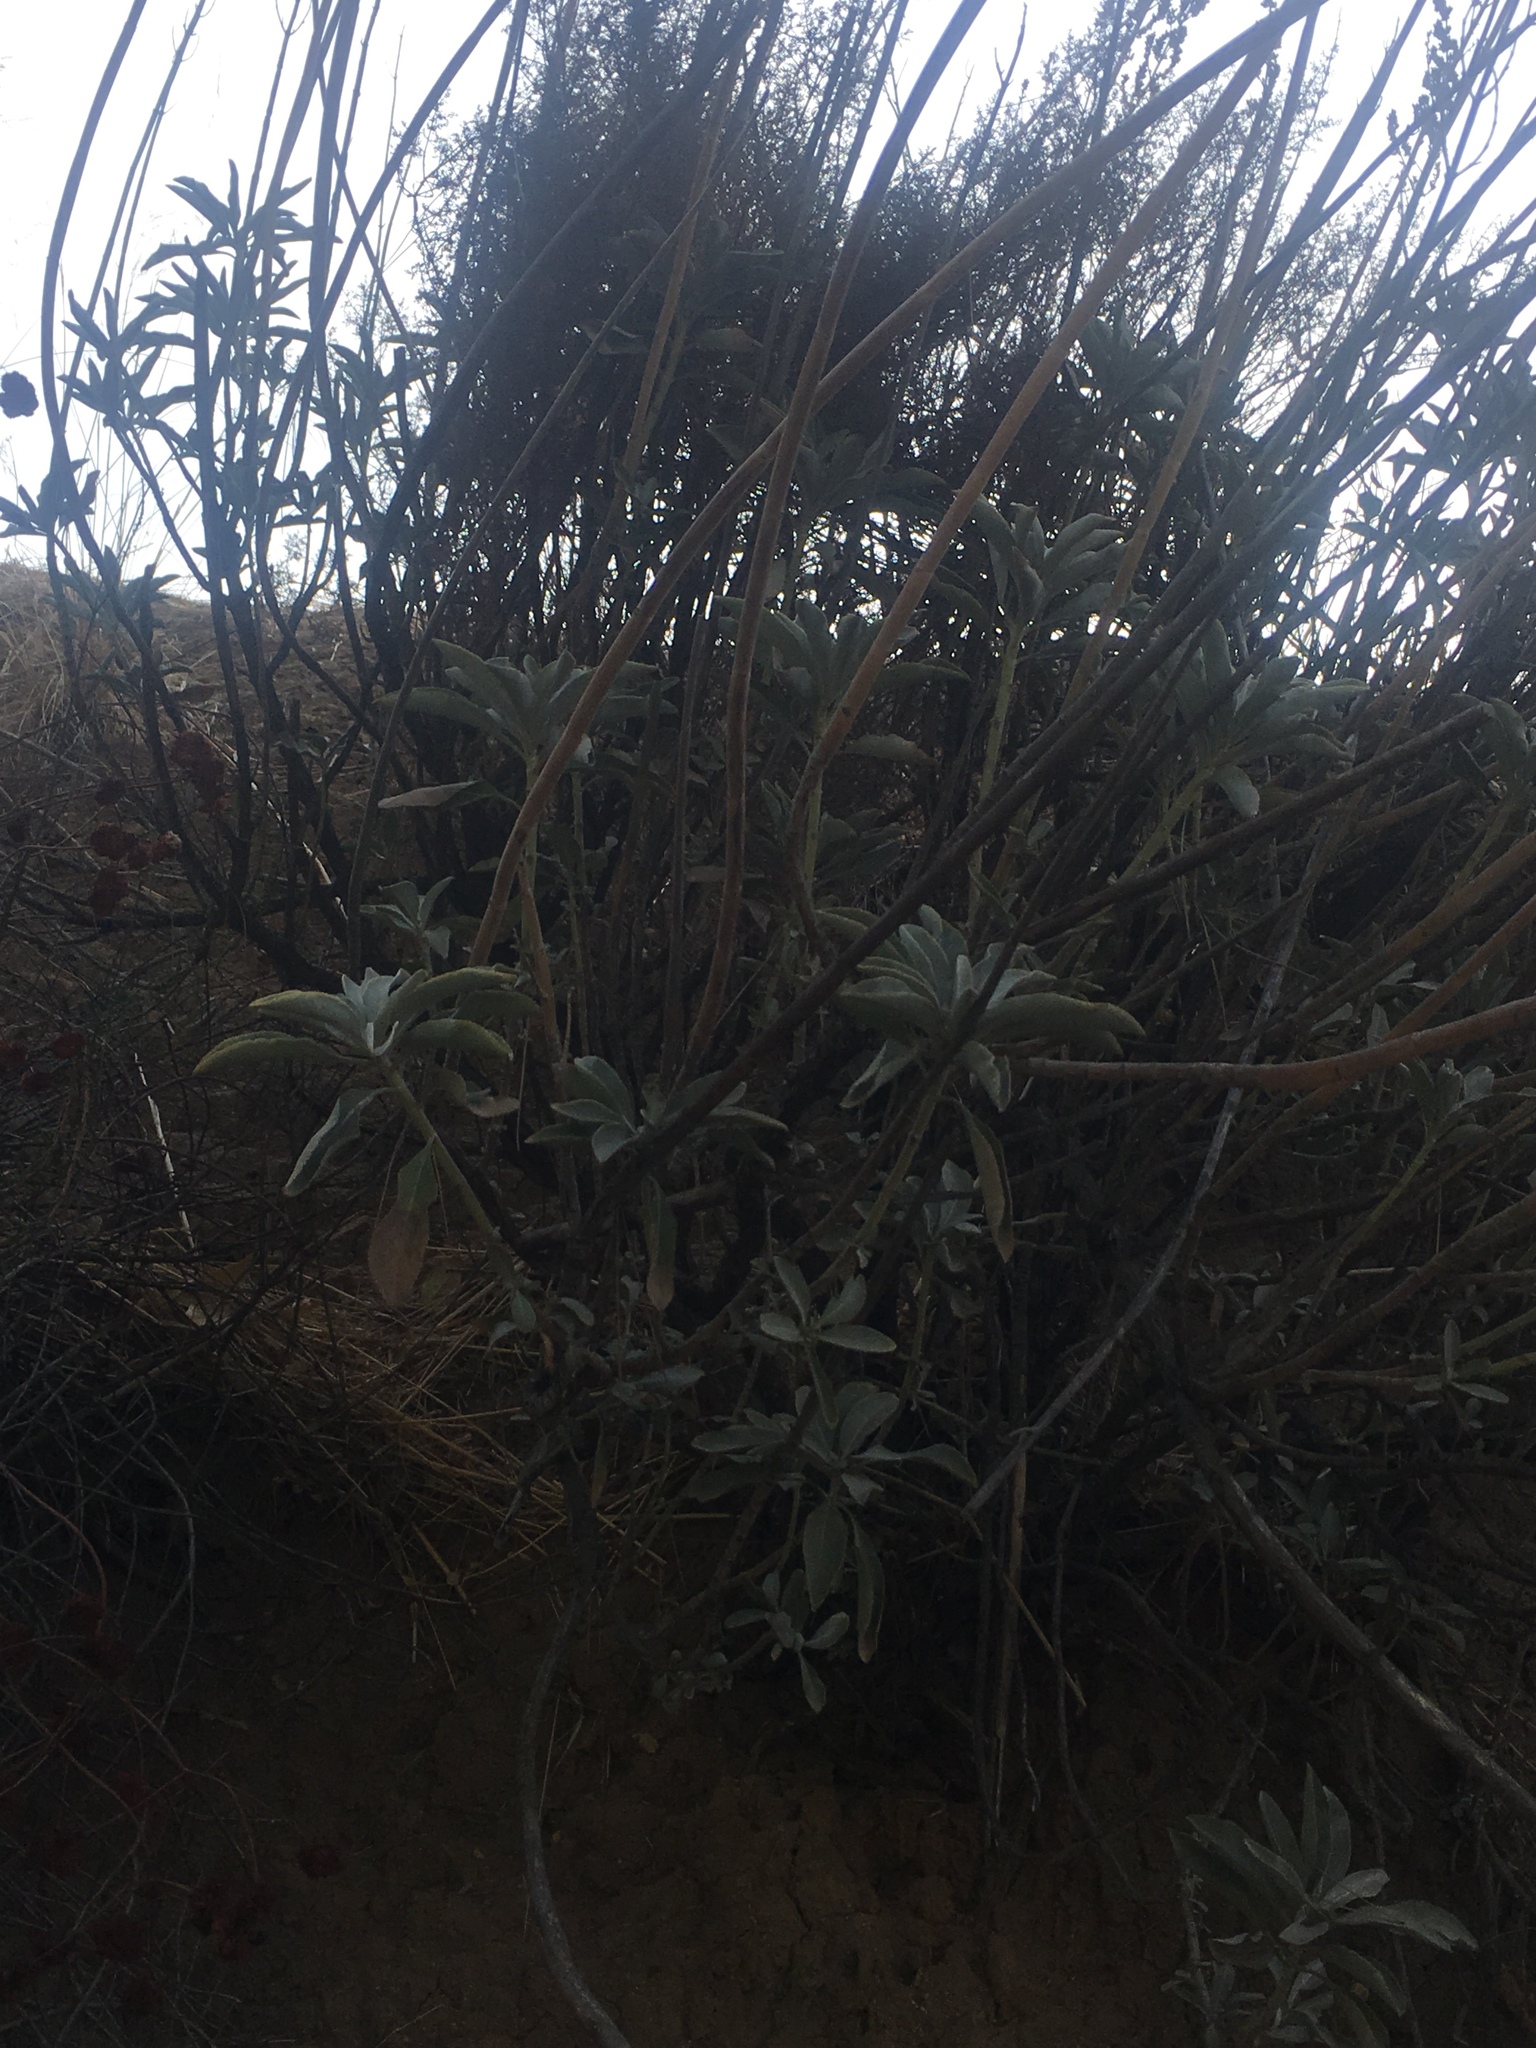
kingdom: Plantae
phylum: Tracheophyta
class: Magnoliopsida
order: Lamiales
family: Lamiaceae
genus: Salvia
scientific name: Salvia apiana
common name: White sage
